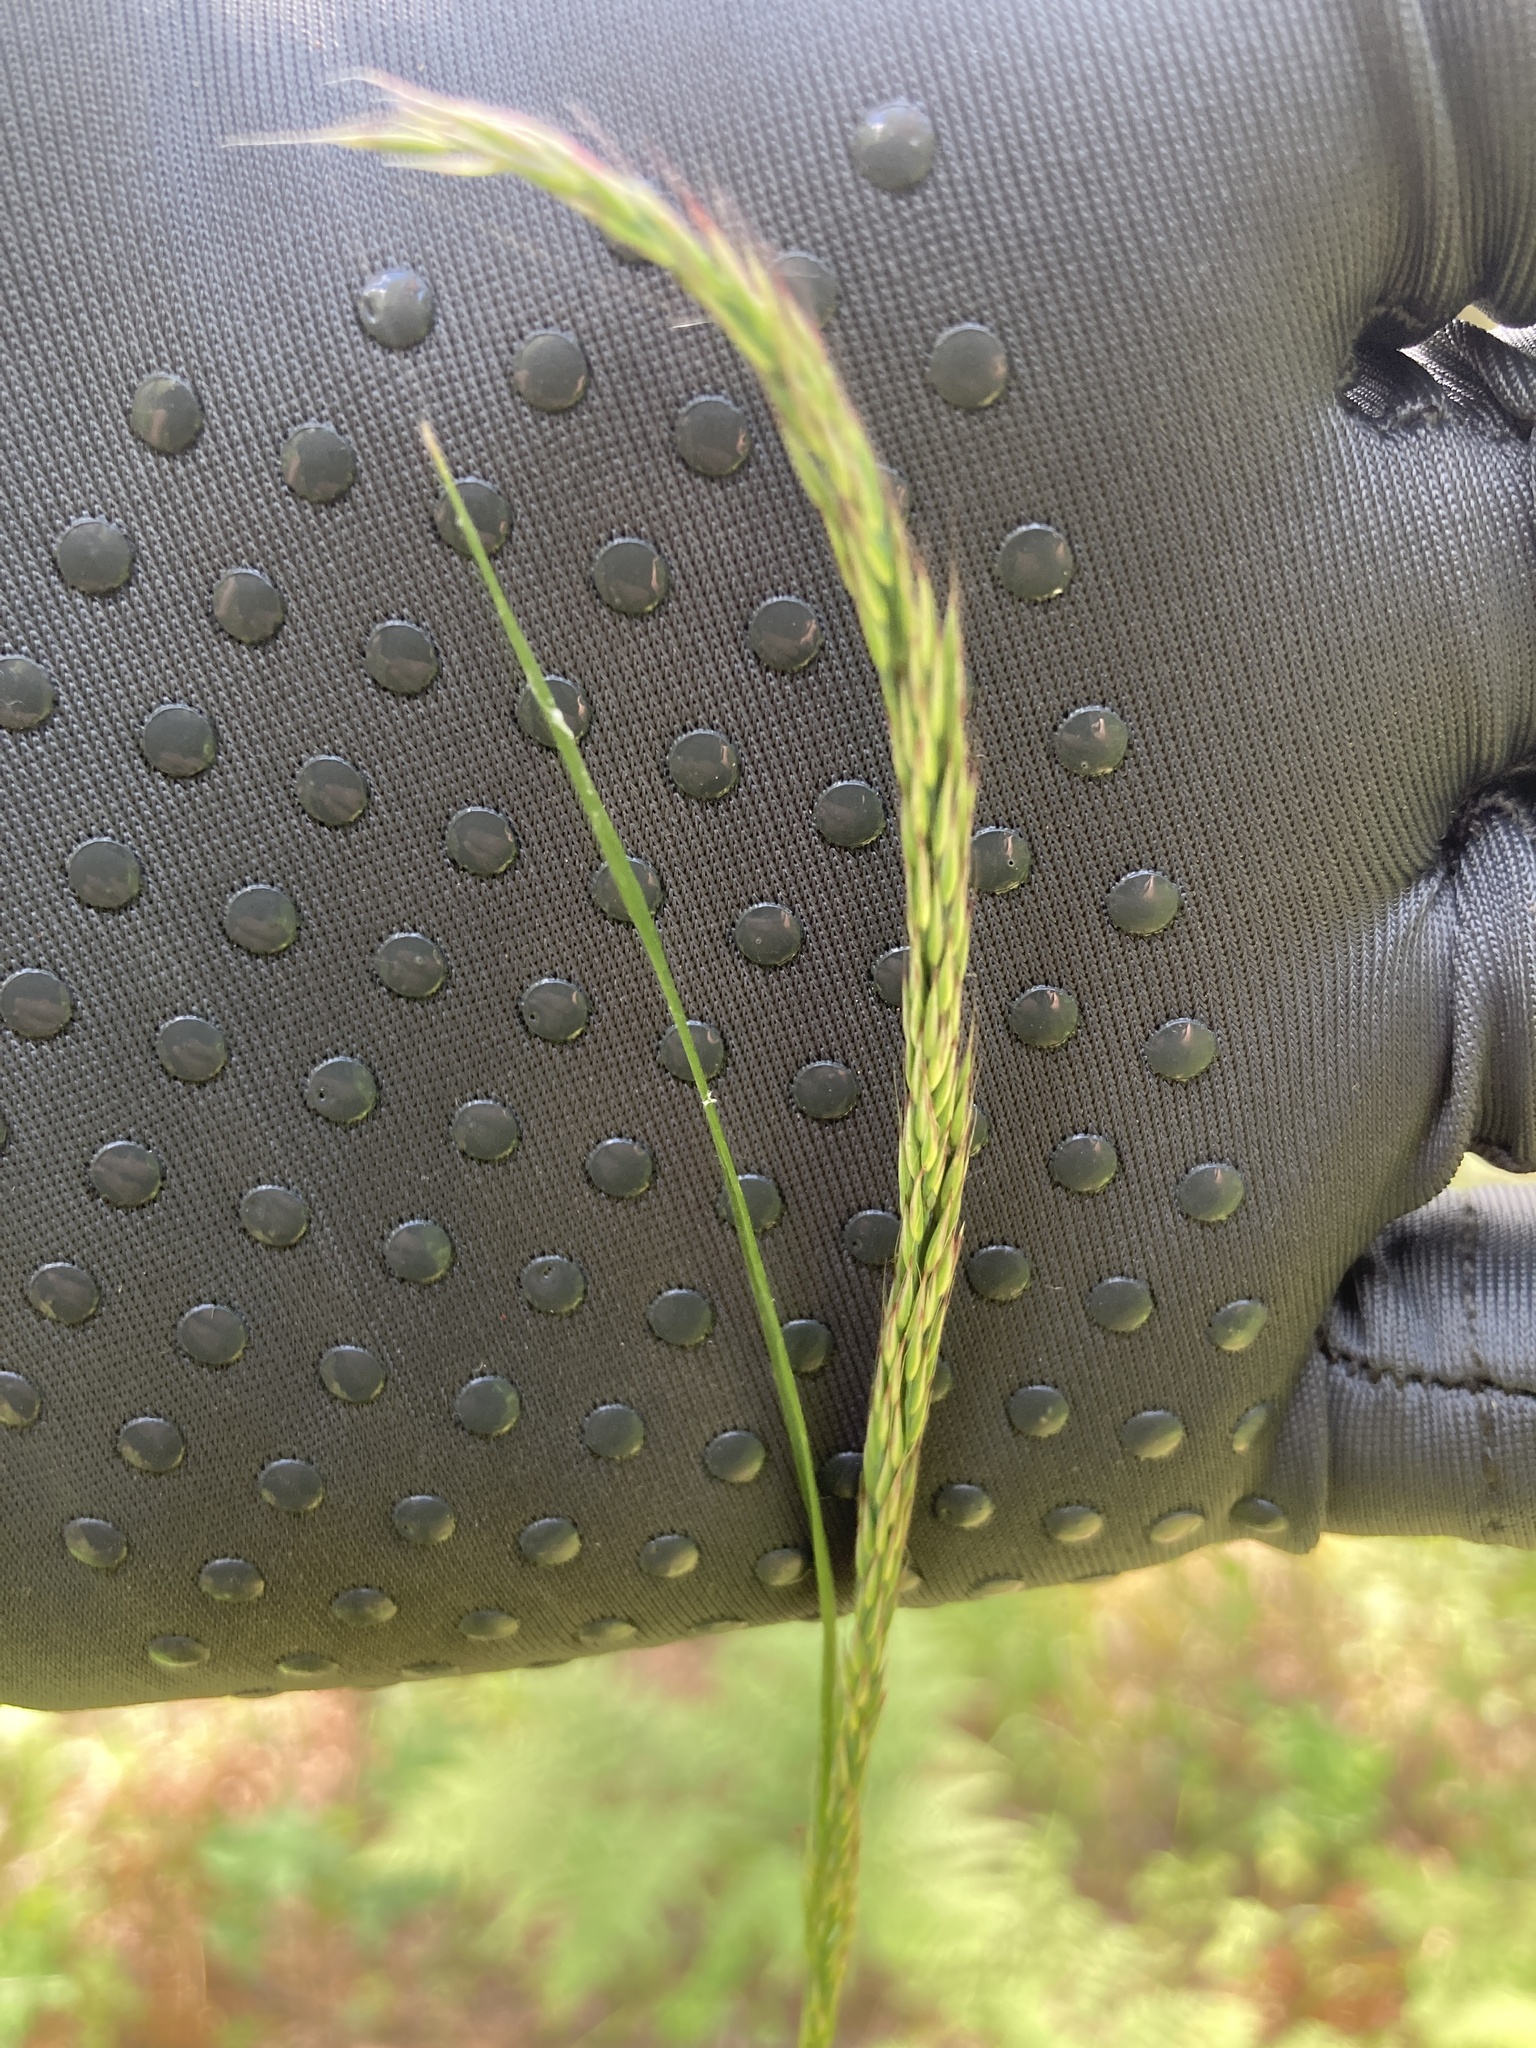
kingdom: Plantae
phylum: Tracheophyta
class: Liliopsida
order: Poales
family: Poaceae
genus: Calamagrostis
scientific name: Calamagrostis arundinacea
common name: Metskastik
